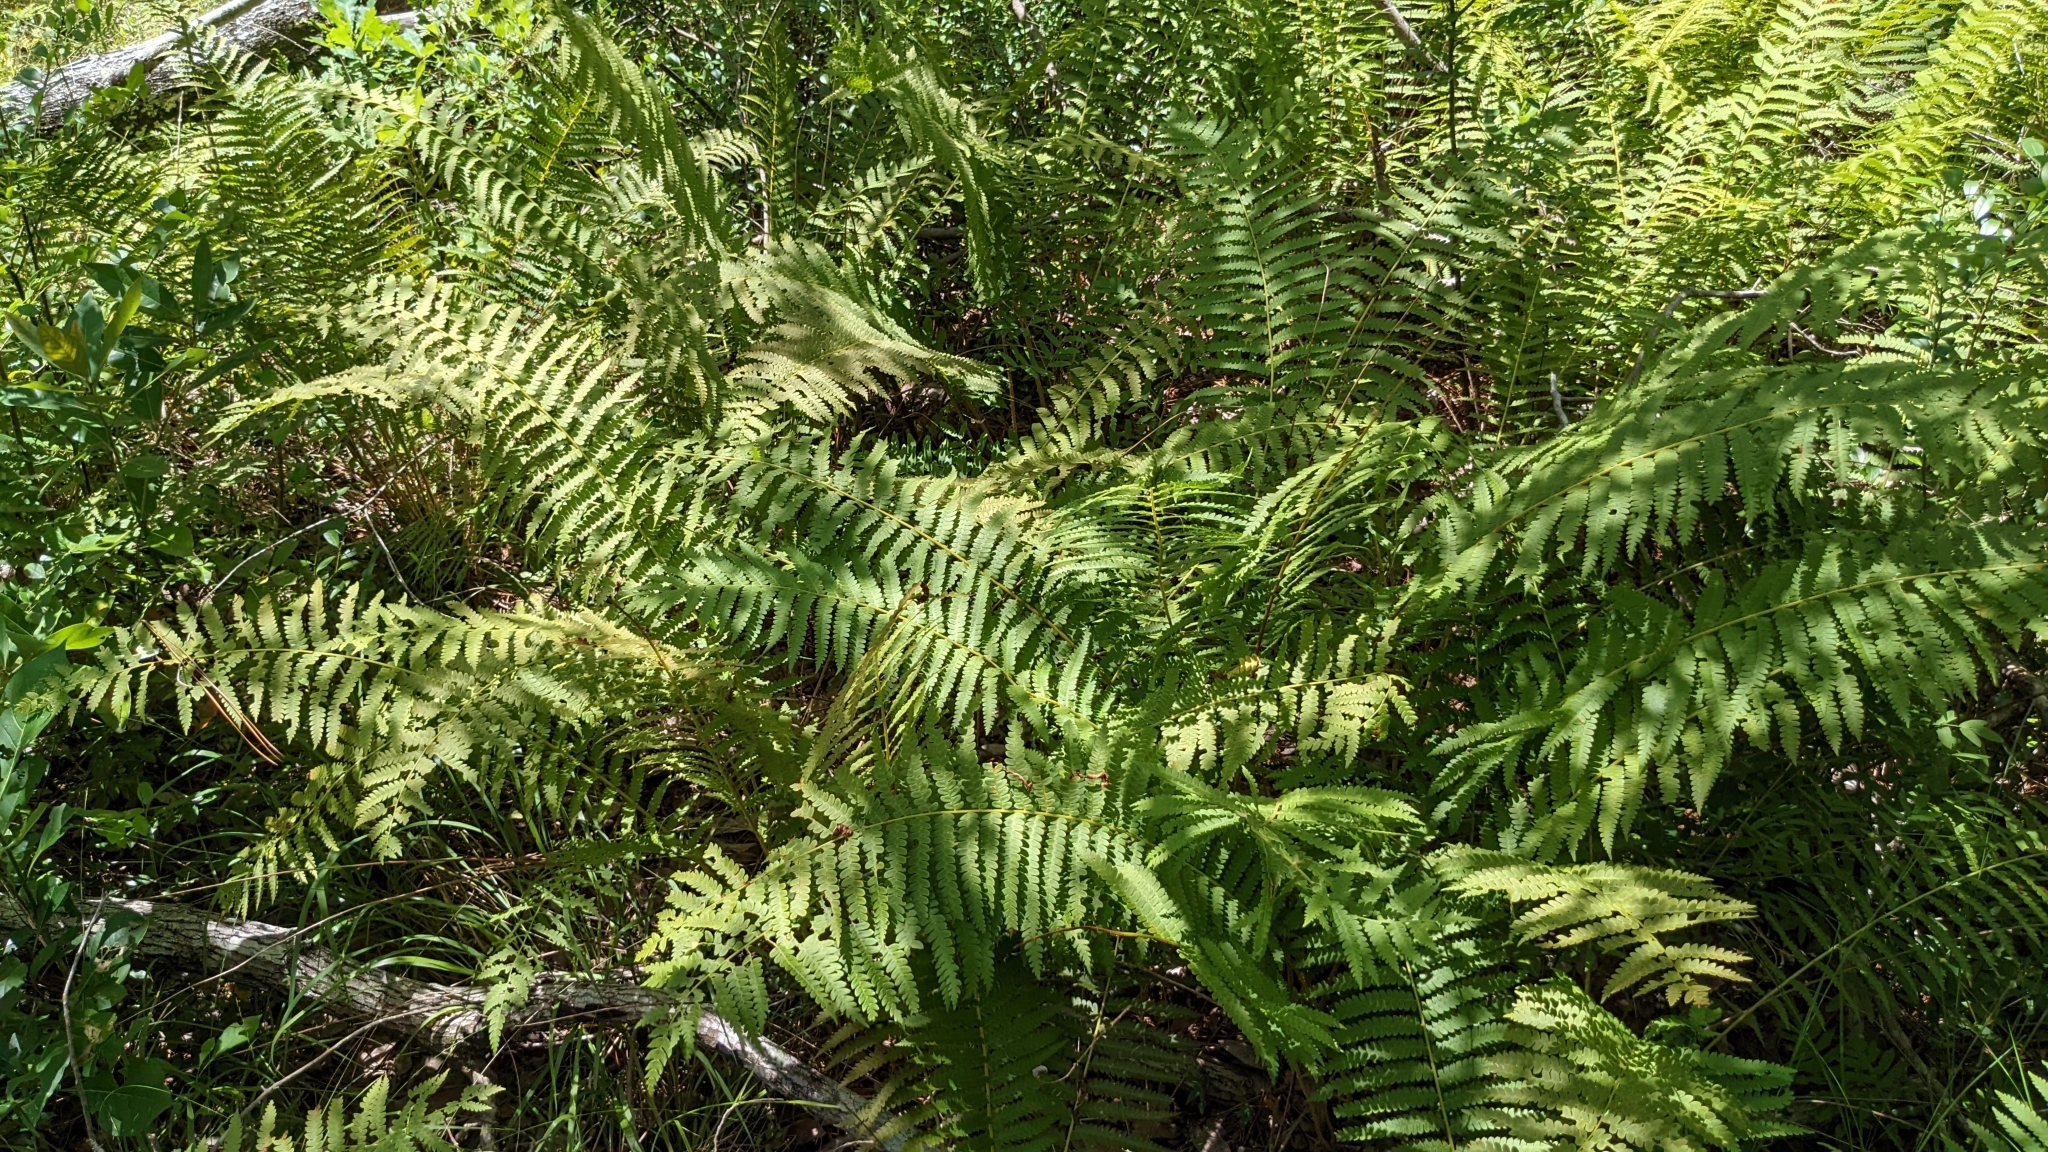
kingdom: Plantae
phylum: Tracheophyta
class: Polypodiopsida
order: Osmundales
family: Osmundaceae
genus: Osmundastrum
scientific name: Osmundastrum cinnamomeum
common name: Cinnamon fern
